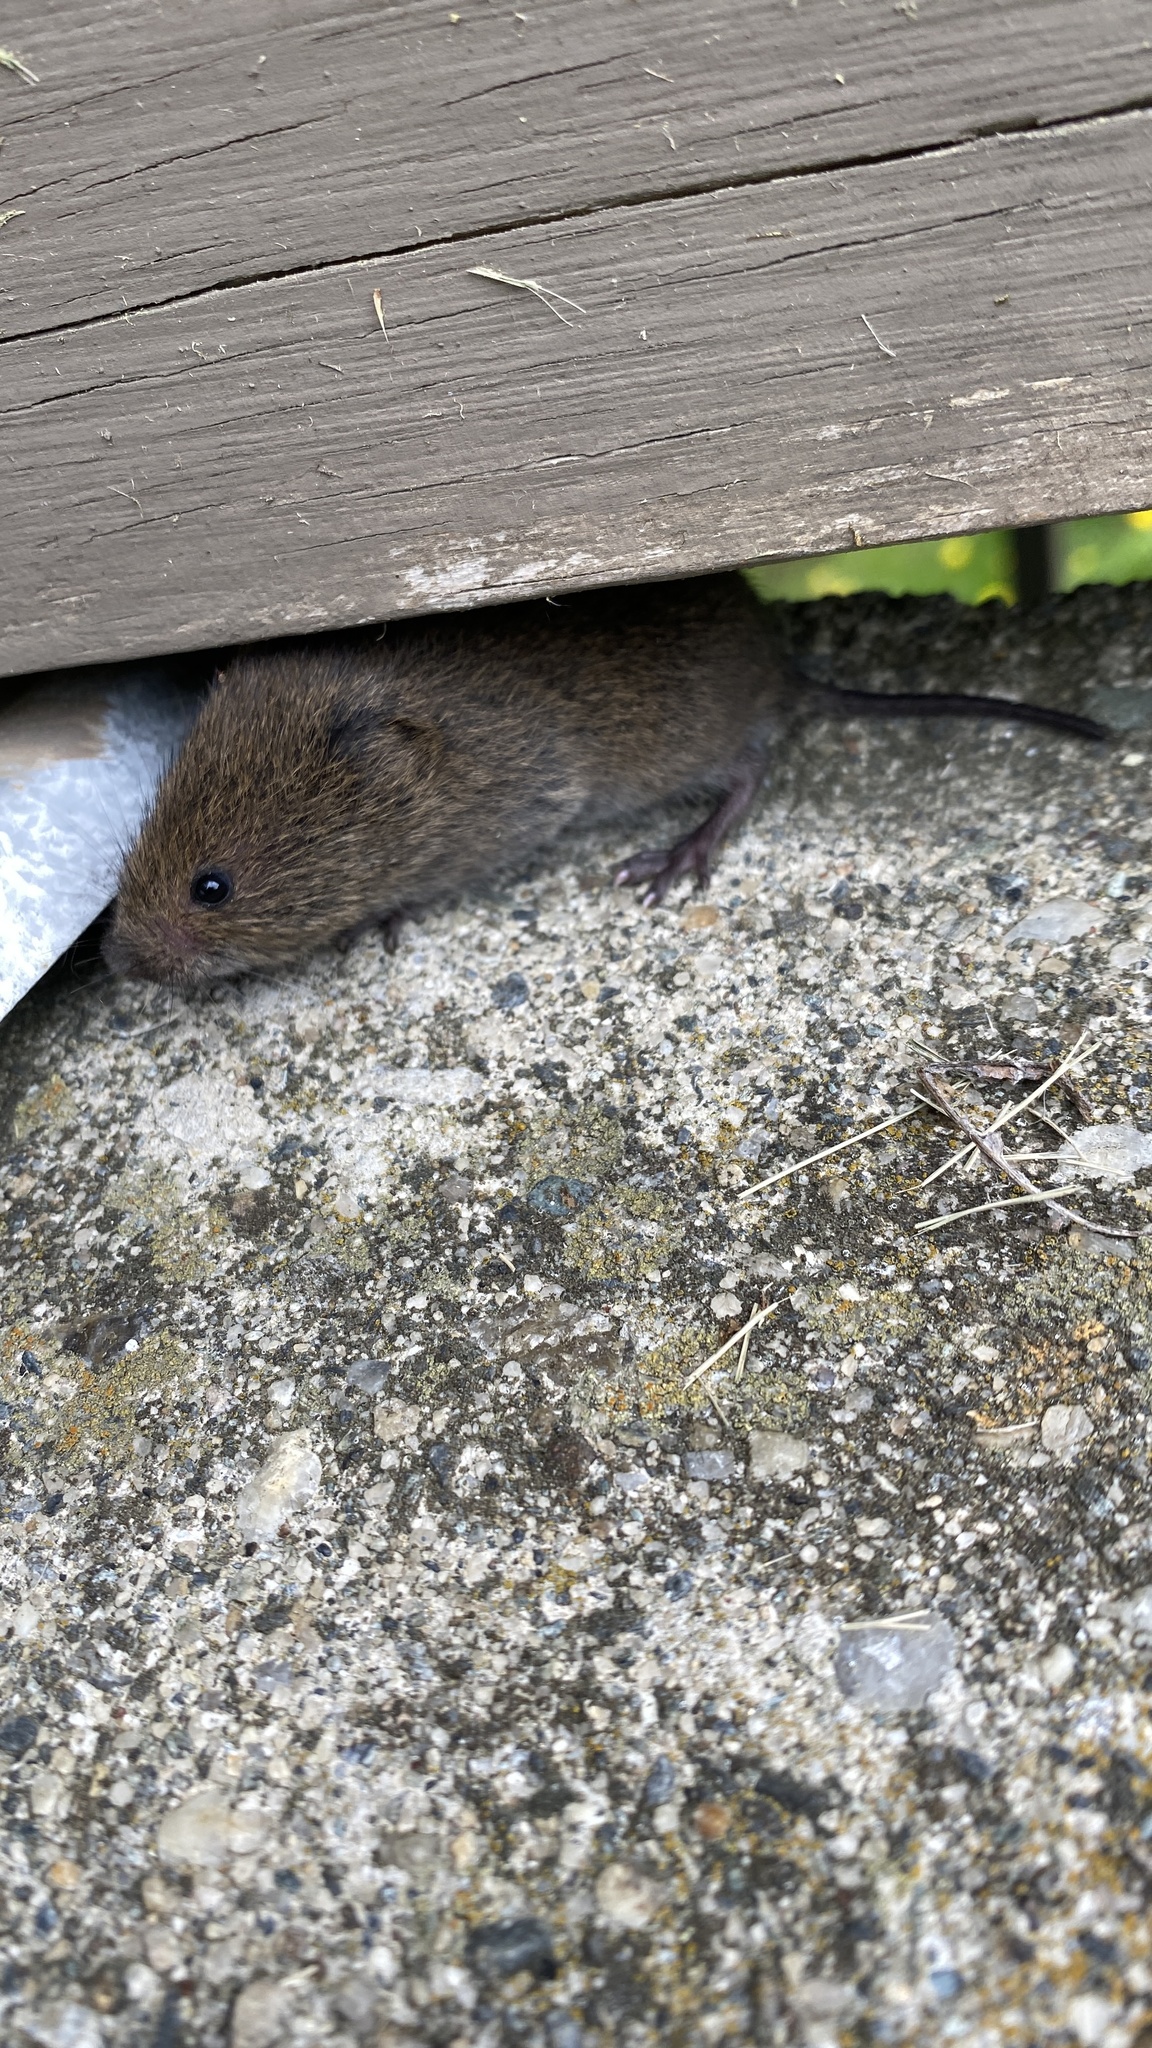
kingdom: Animalia
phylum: Chordata
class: Mammalia
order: Rodentia
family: Cricetidae
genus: Microtus
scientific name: Microtus pennsylvanicus
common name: Meadow vole
